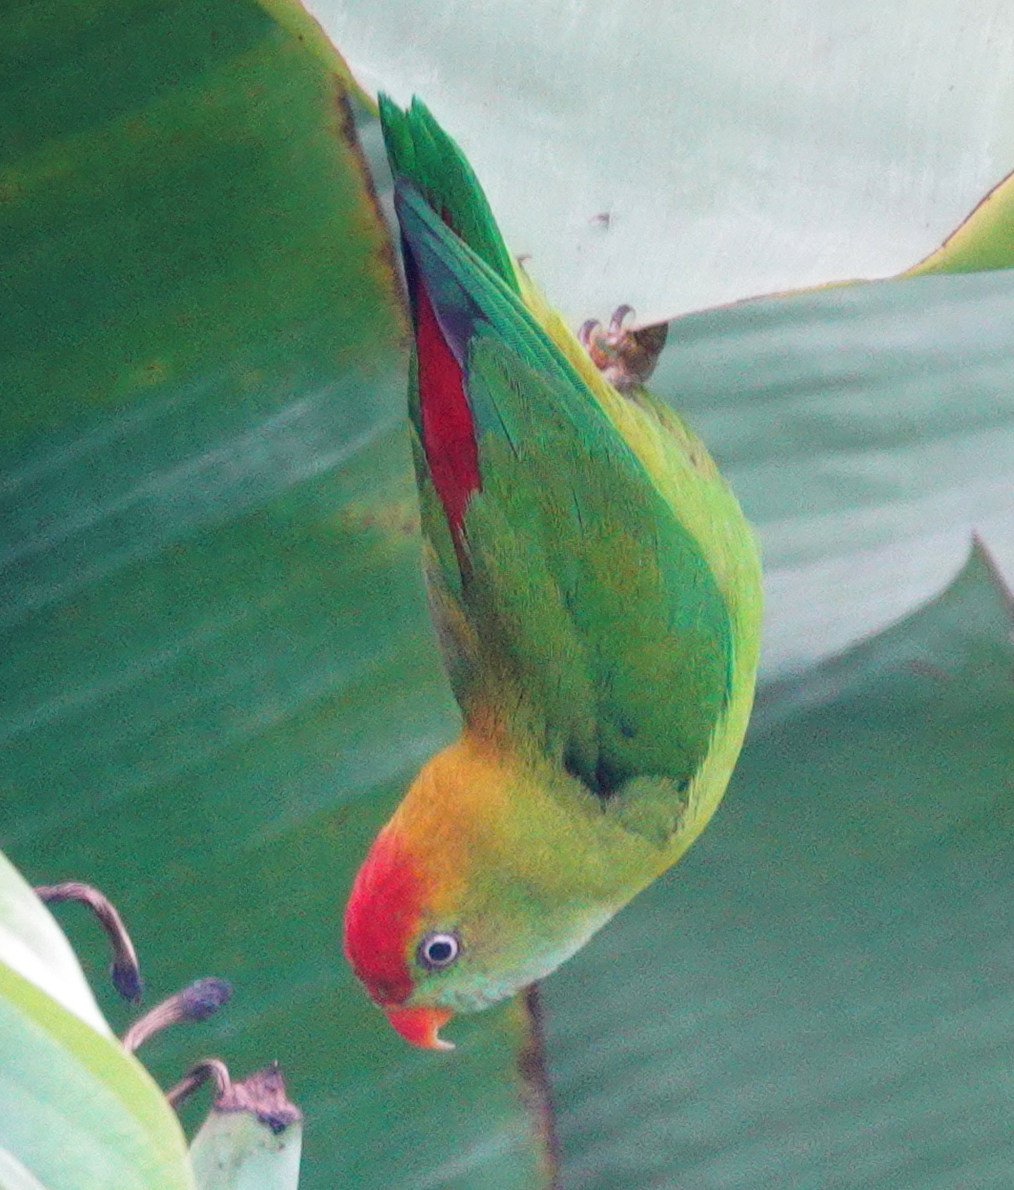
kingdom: Animalia
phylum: Chordata
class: Aves
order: Psittaciformes
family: Psittacidae
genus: Loriculus
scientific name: Loriculus beryllinus
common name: Sri lanka hanging parrot
